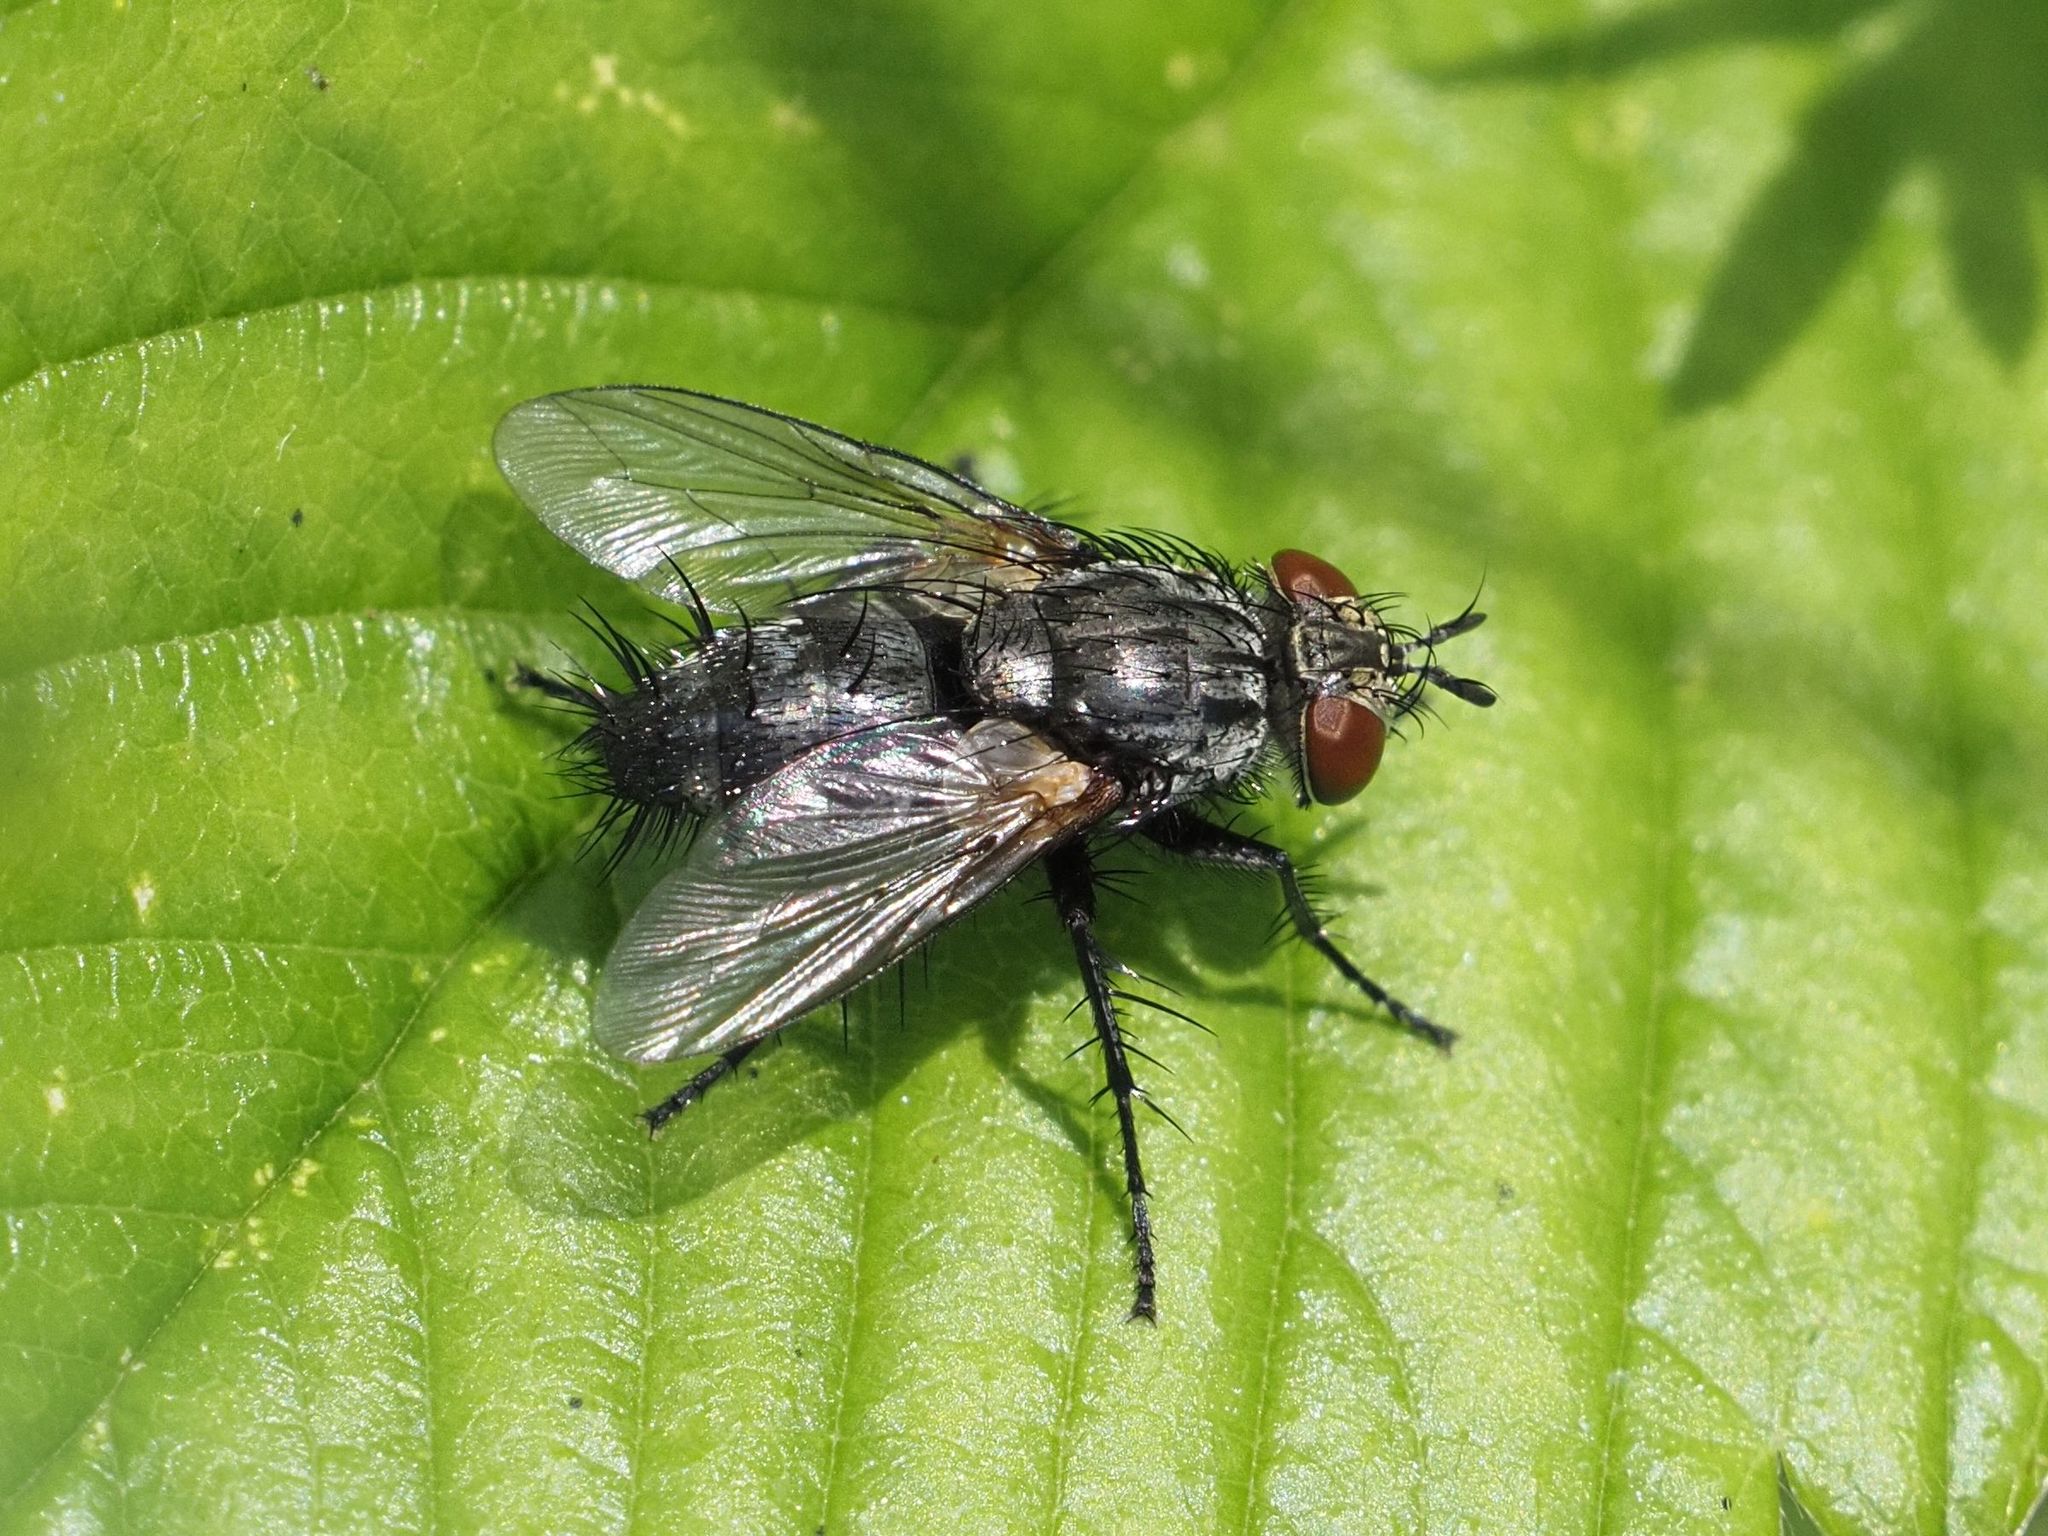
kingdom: Animalia
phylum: Arthropoda
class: Insecta
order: Diptera
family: Tachinidae
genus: Voria
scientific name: Voria ruralis
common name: Parasitic fly
